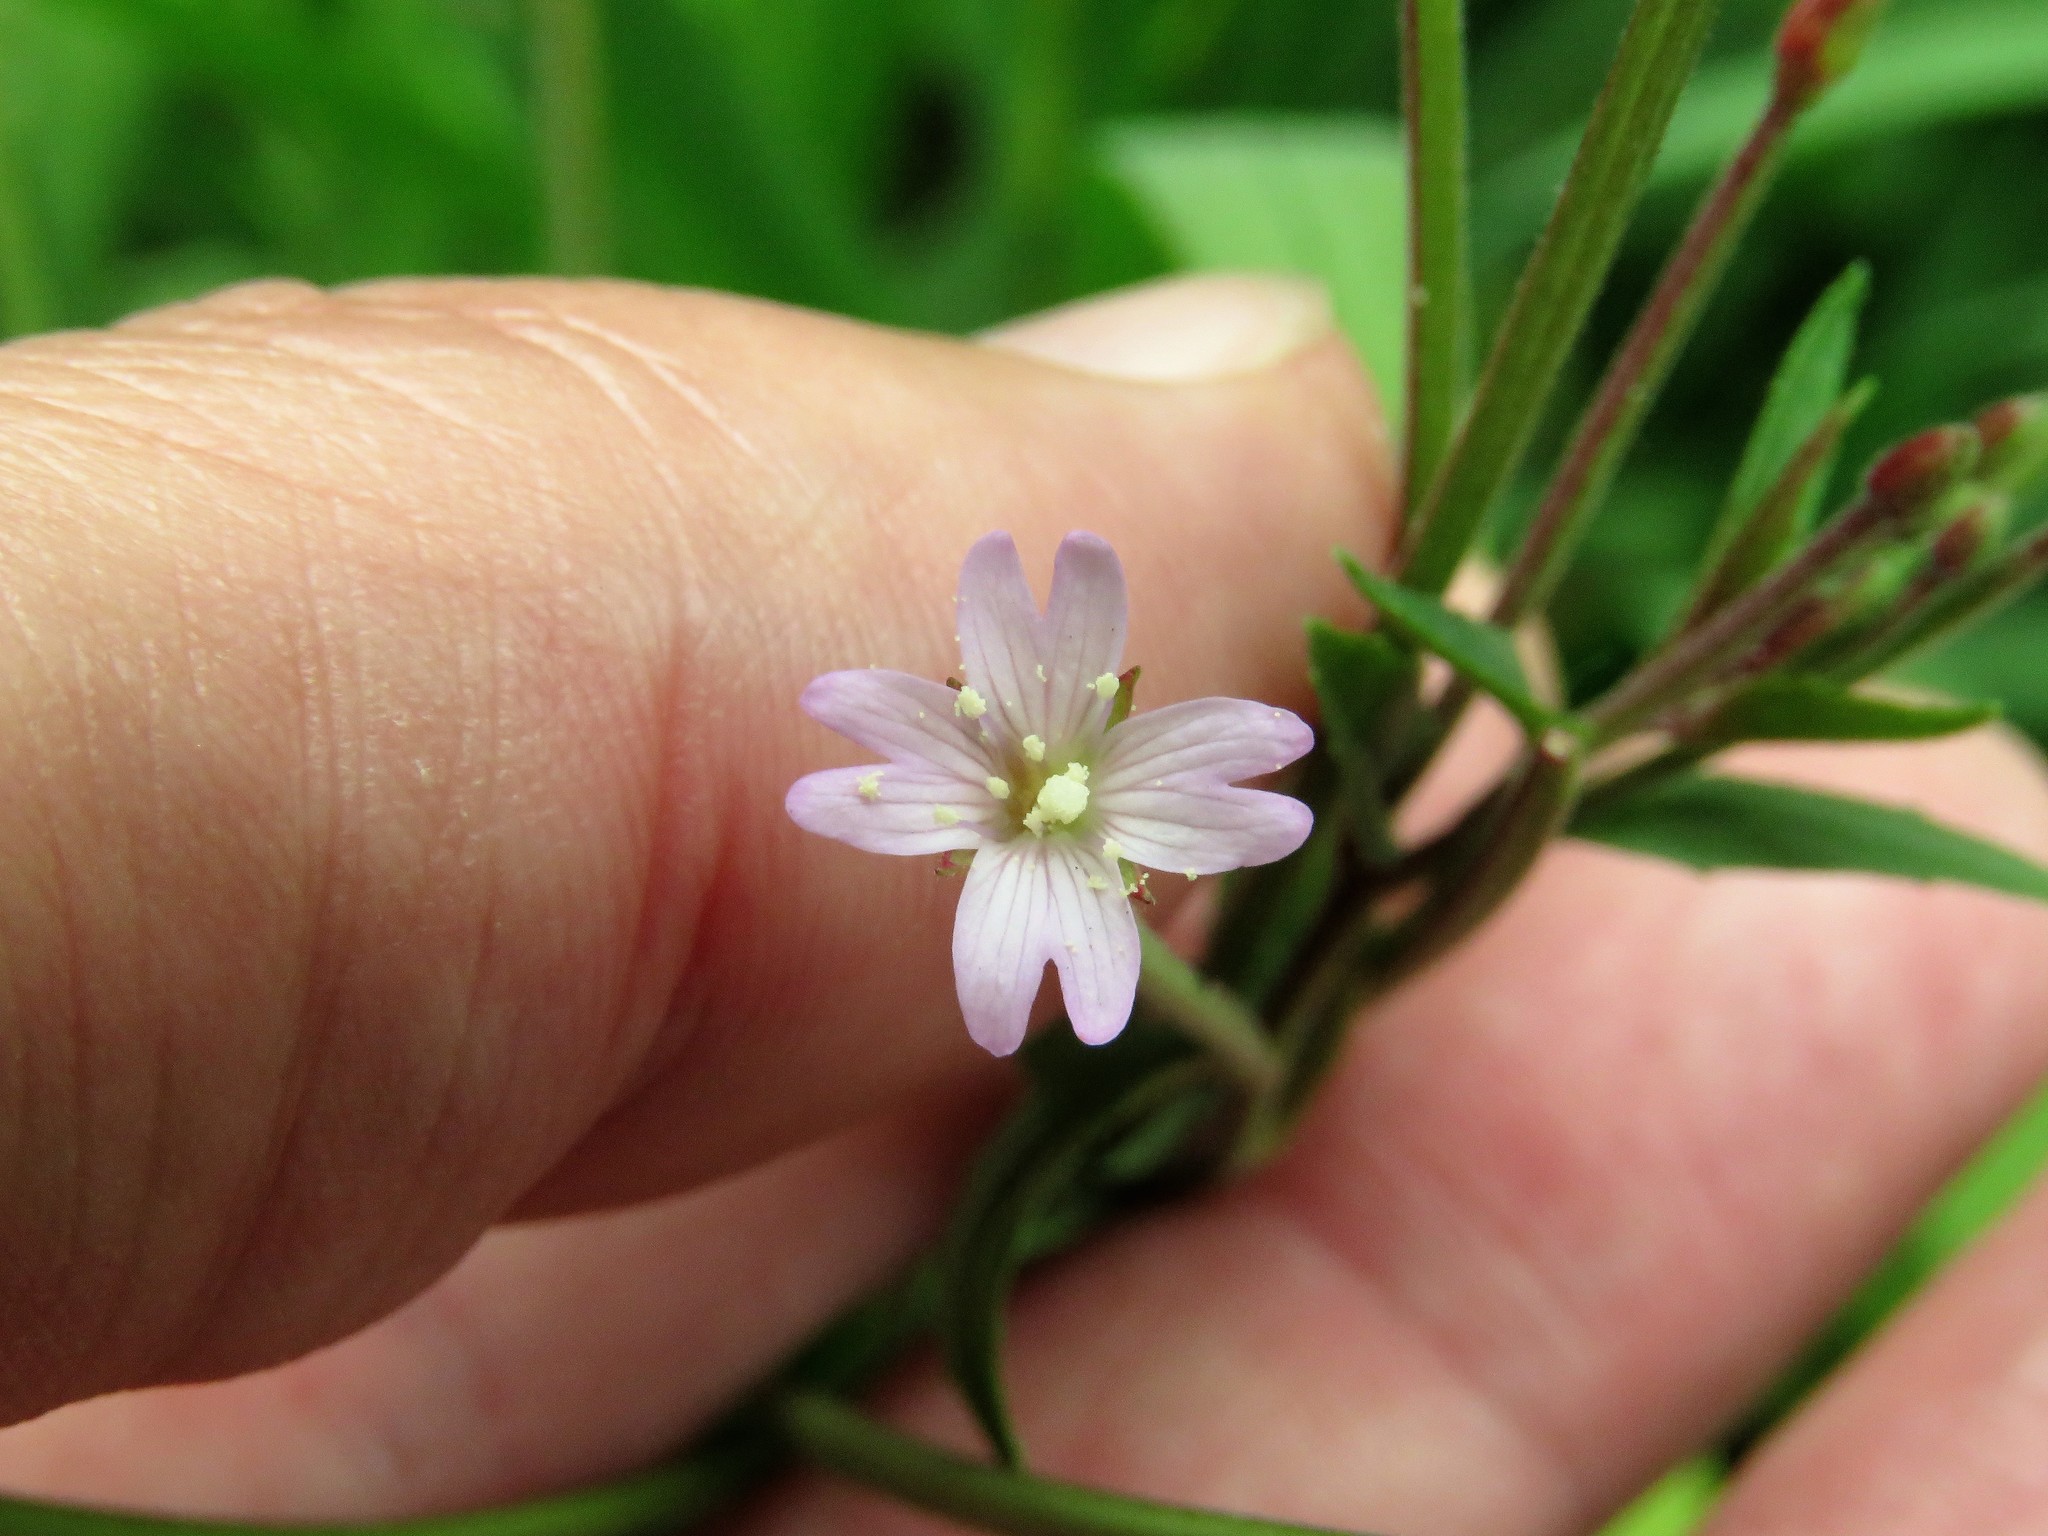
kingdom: Plantae
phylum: Tracheophyta
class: Magnoliopsida
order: Myrtales
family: Onagraceae
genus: Epilobium
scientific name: Epilobium denticulatum
